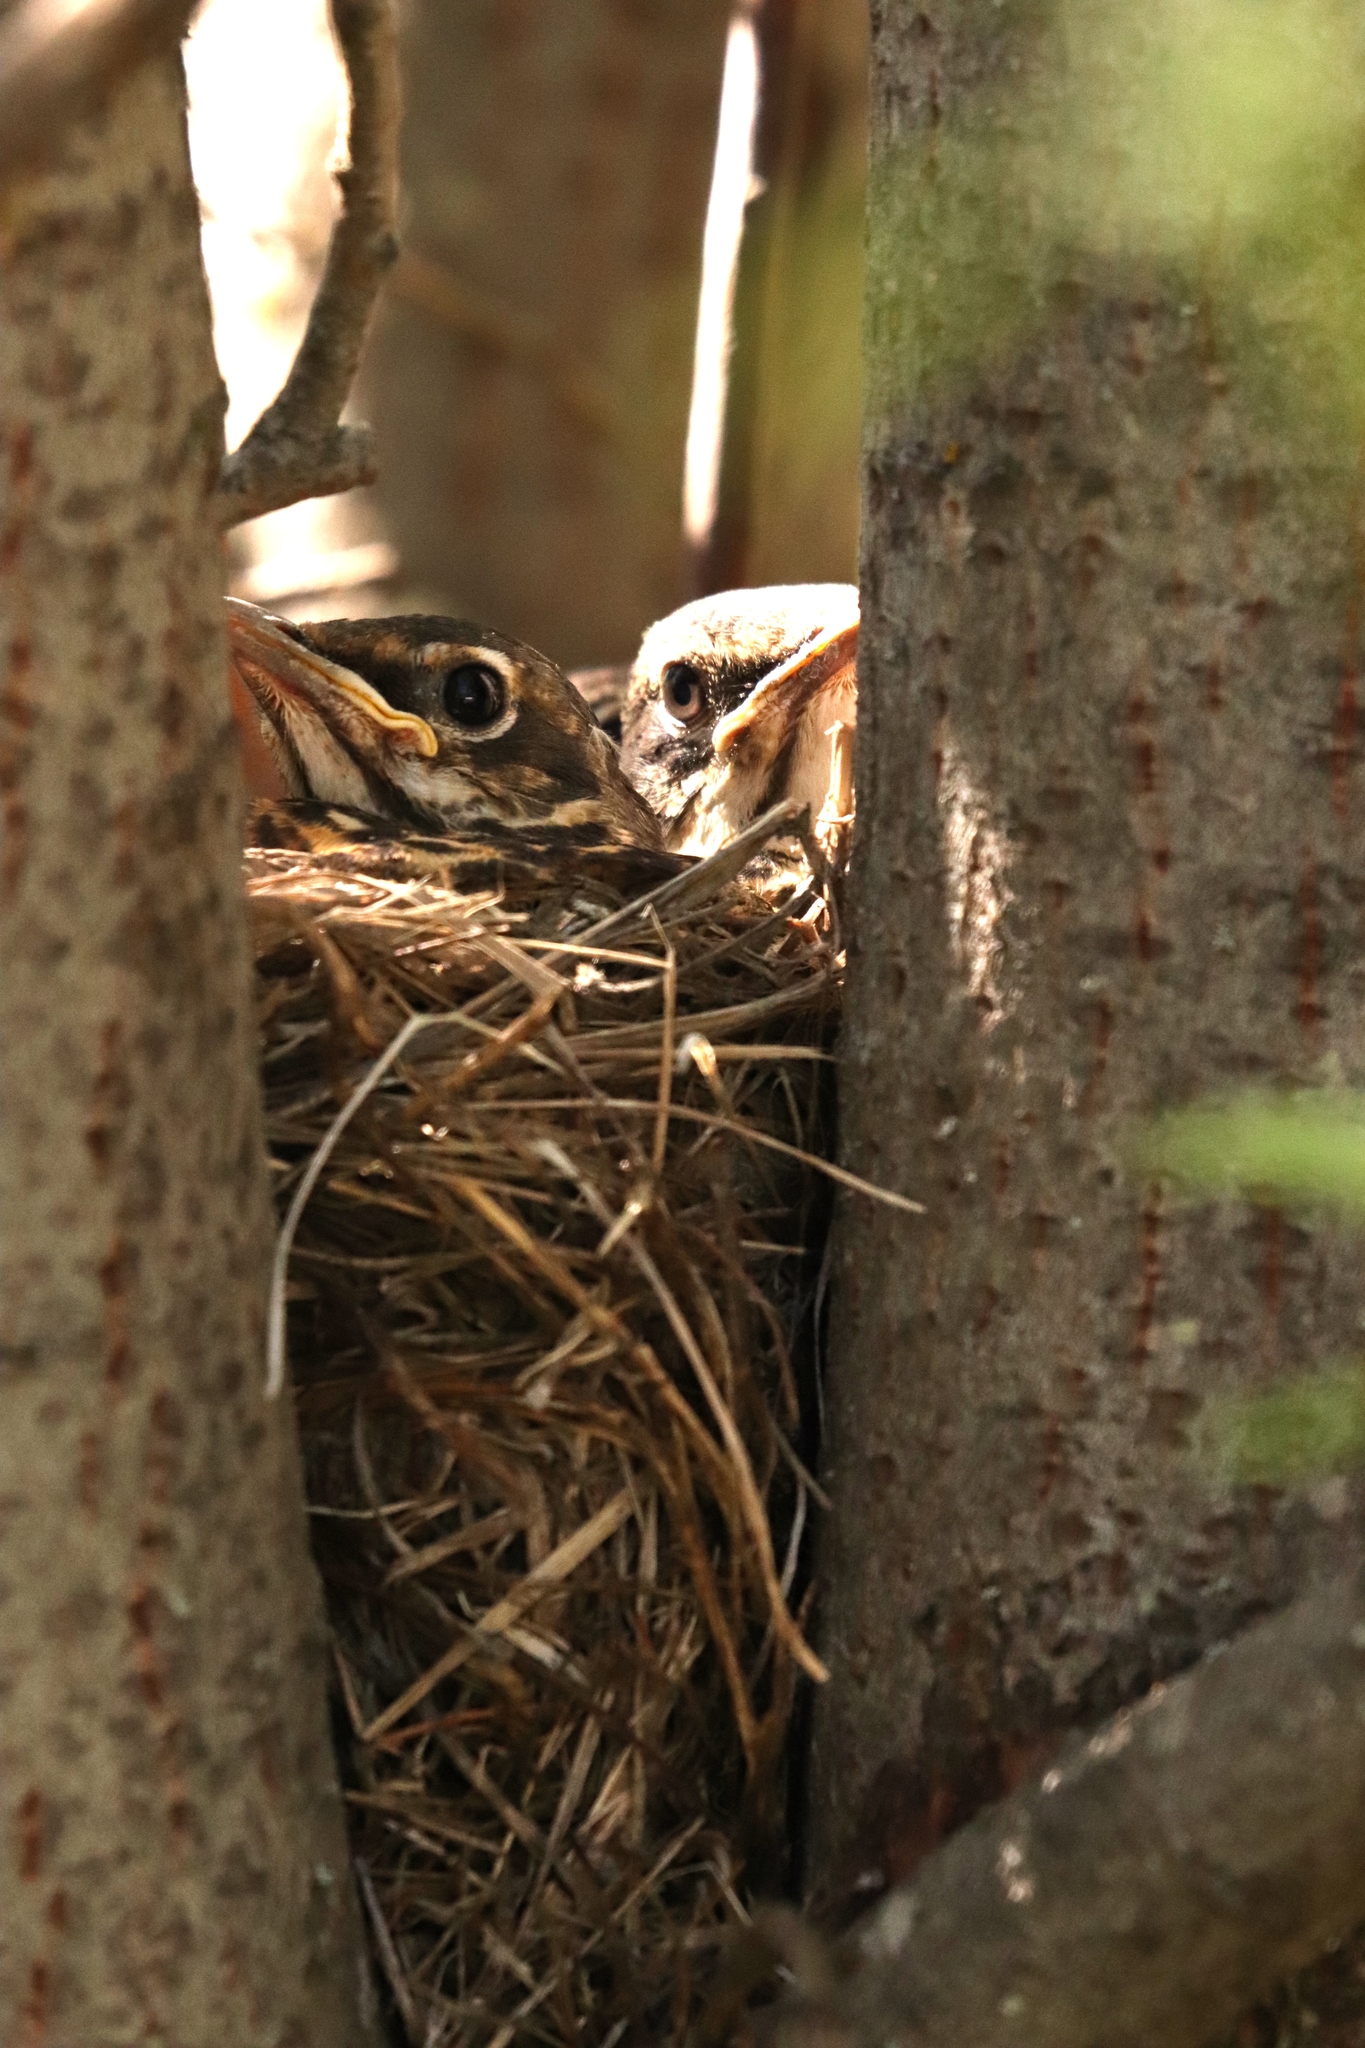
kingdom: Animalia
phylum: Chordata
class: Aves
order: Passeriformes
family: Turdidae
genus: Turdus
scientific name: Turdus migratorius
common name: American robin
